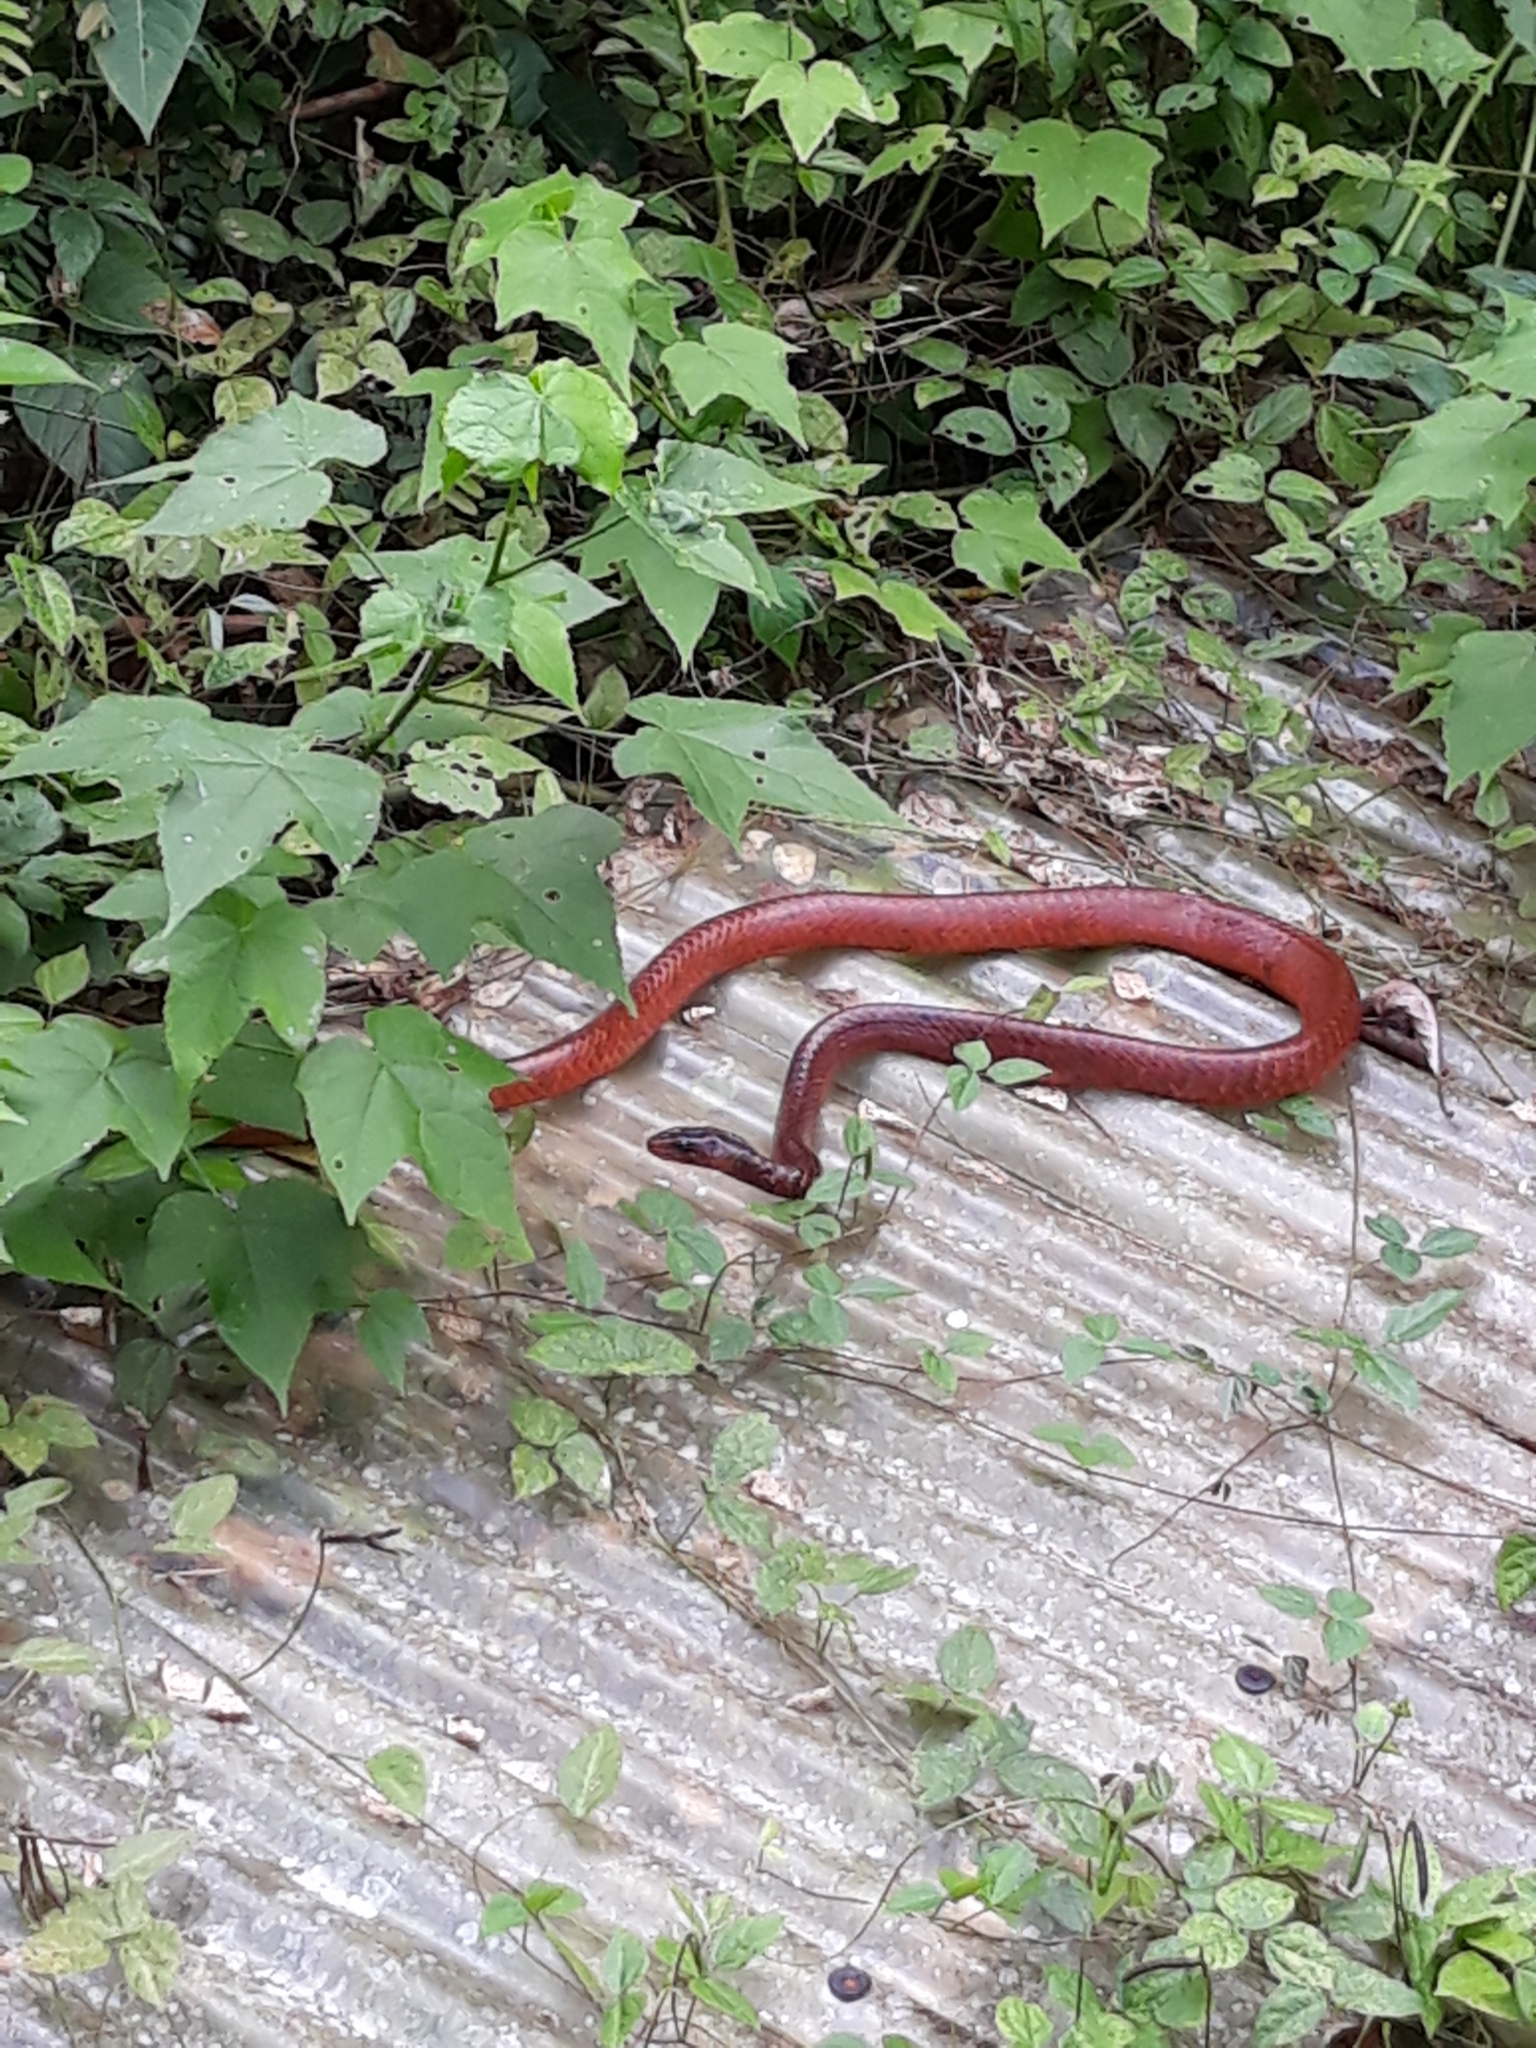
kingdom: Animalia
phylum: Chordata
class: Squamata
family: Colubridae
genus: Chironius
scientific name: Chironius scurrulus
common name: Wagler's sipo
